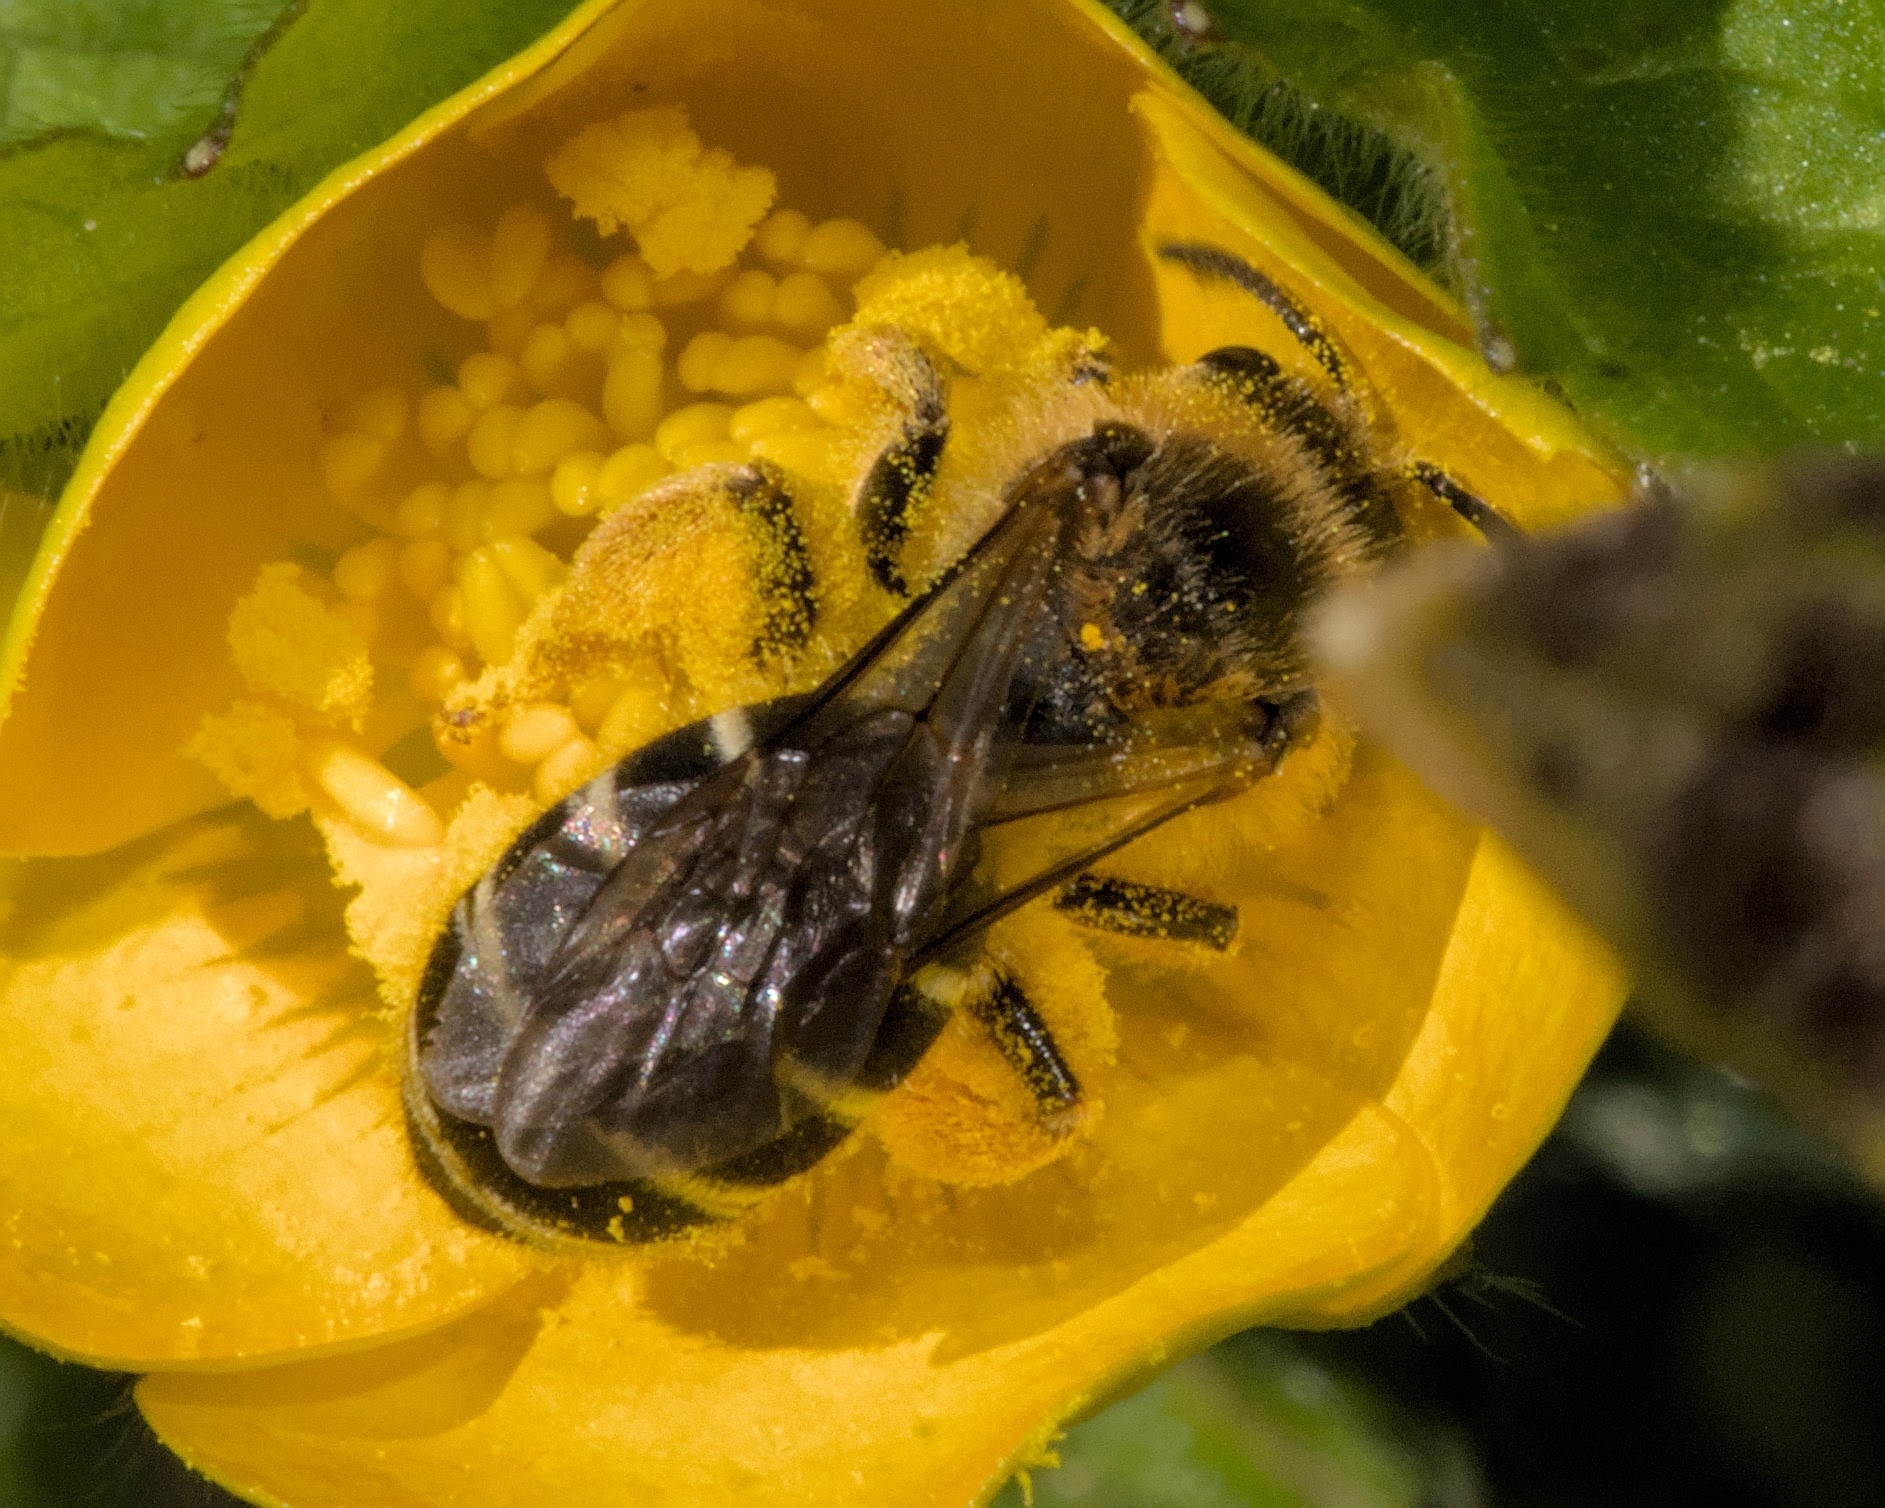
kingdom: Animalia
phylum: Arthropoda
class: Insecta
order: Hymenoptera
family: Halictidae
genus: Halictus
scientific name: Halictus rubicundus
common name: Orange-legged furrow bee
